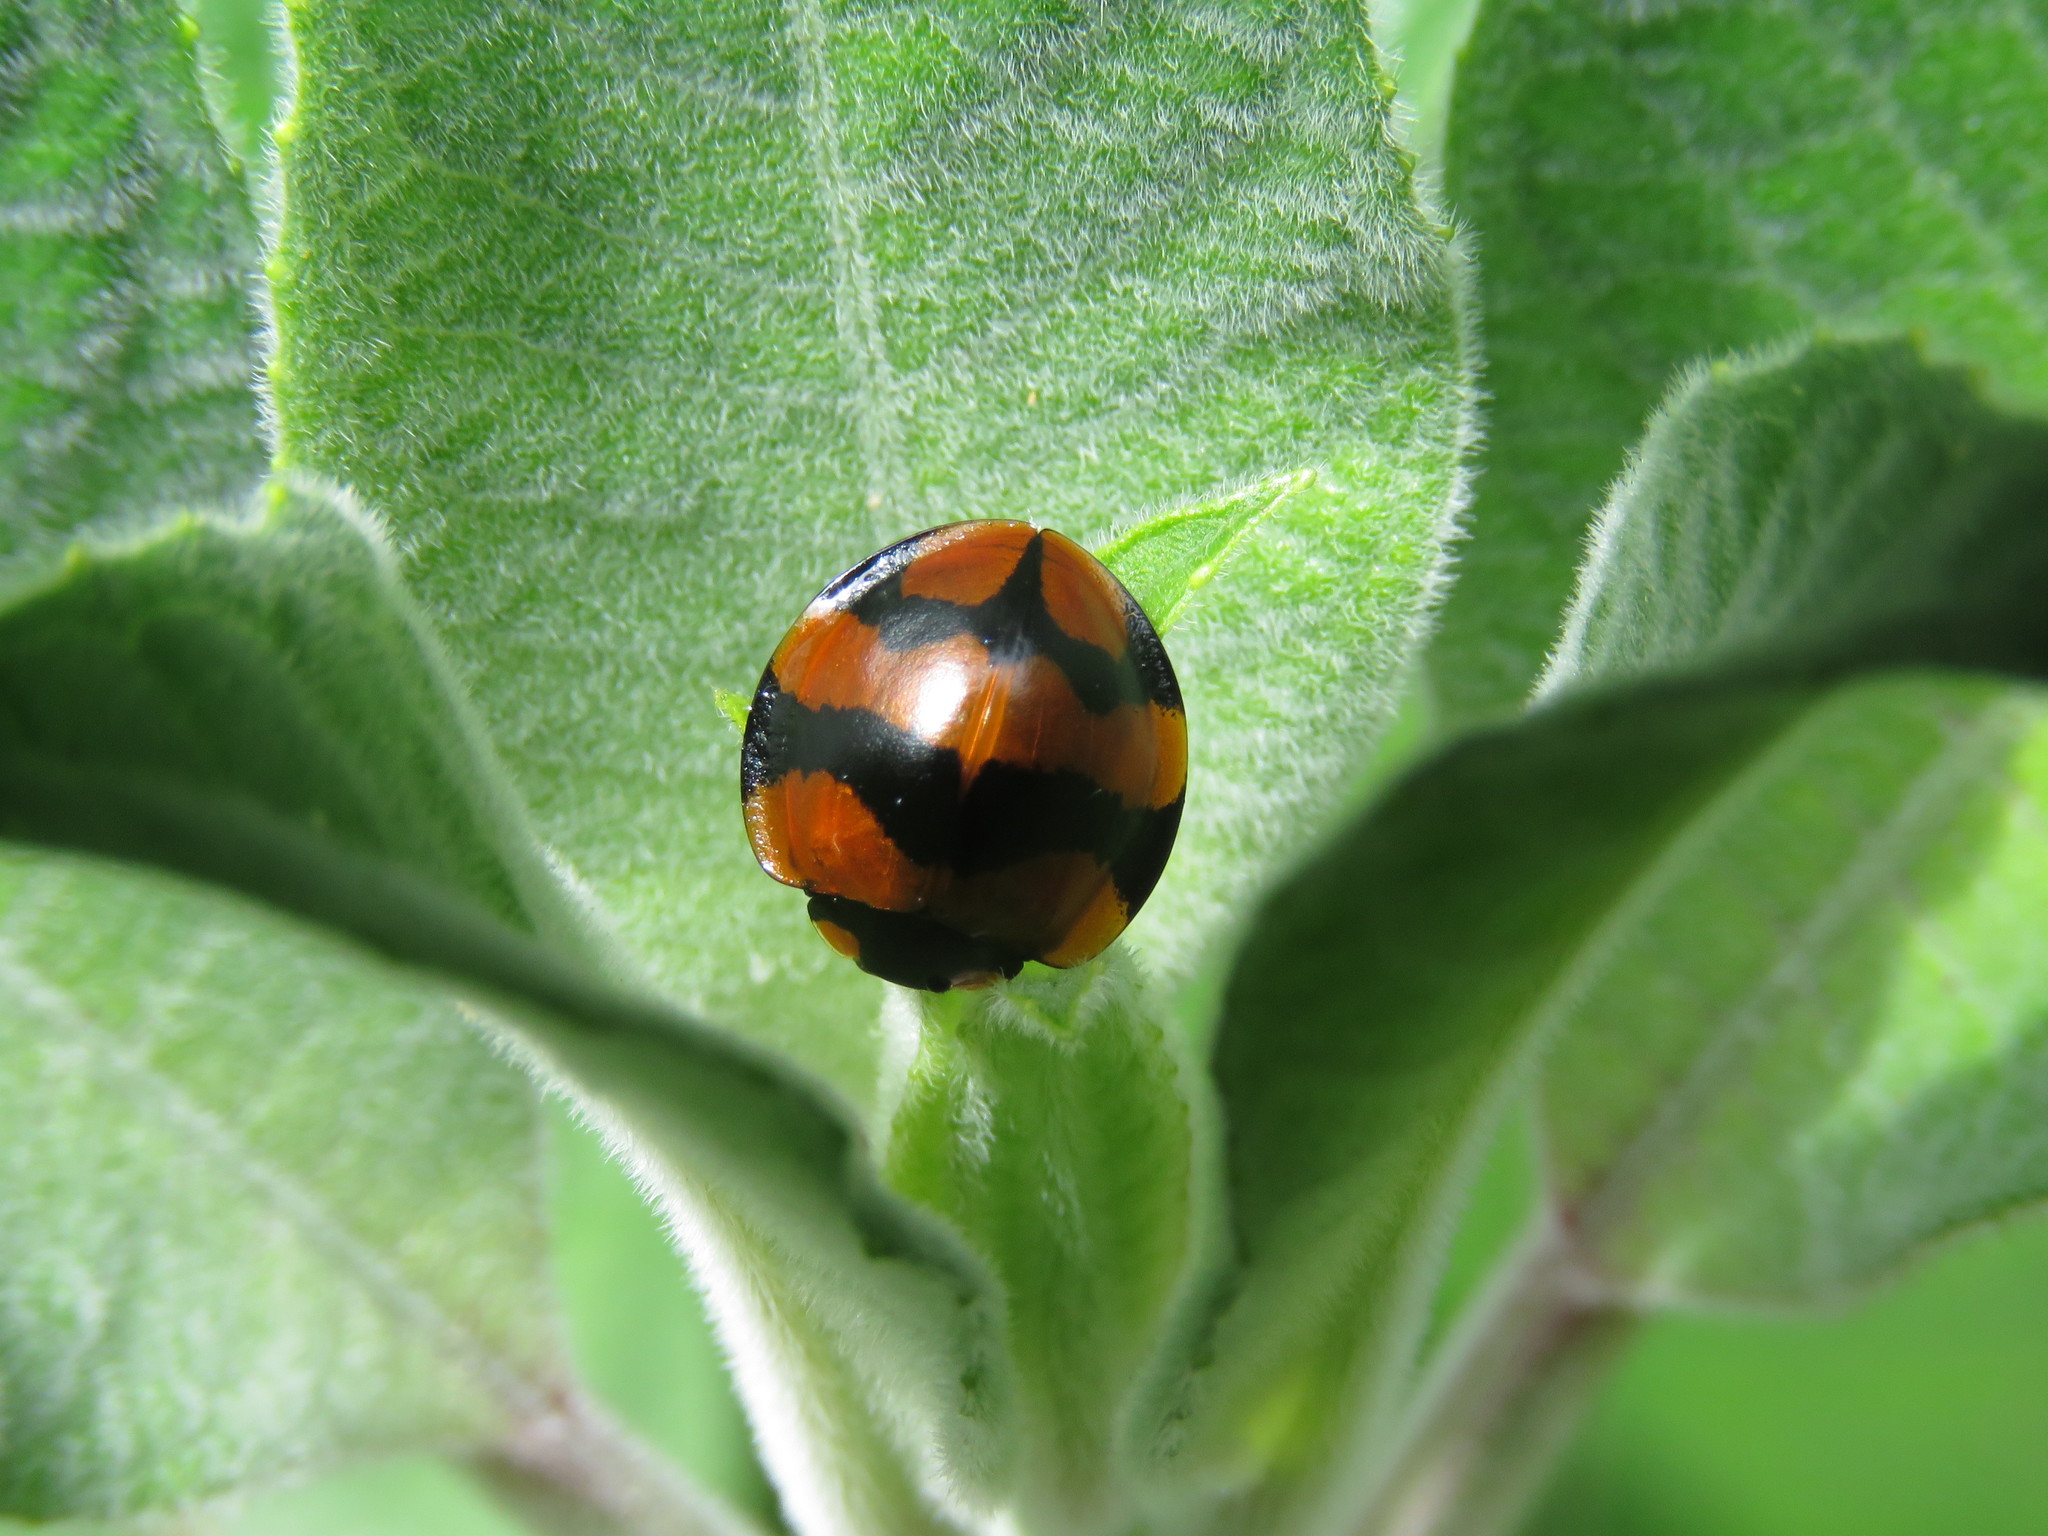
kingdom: Animalia
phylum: Arthropoda
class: Insecta
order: Coleoptera
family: Coccinellidae
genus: Neda
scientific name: Neda norrisi
